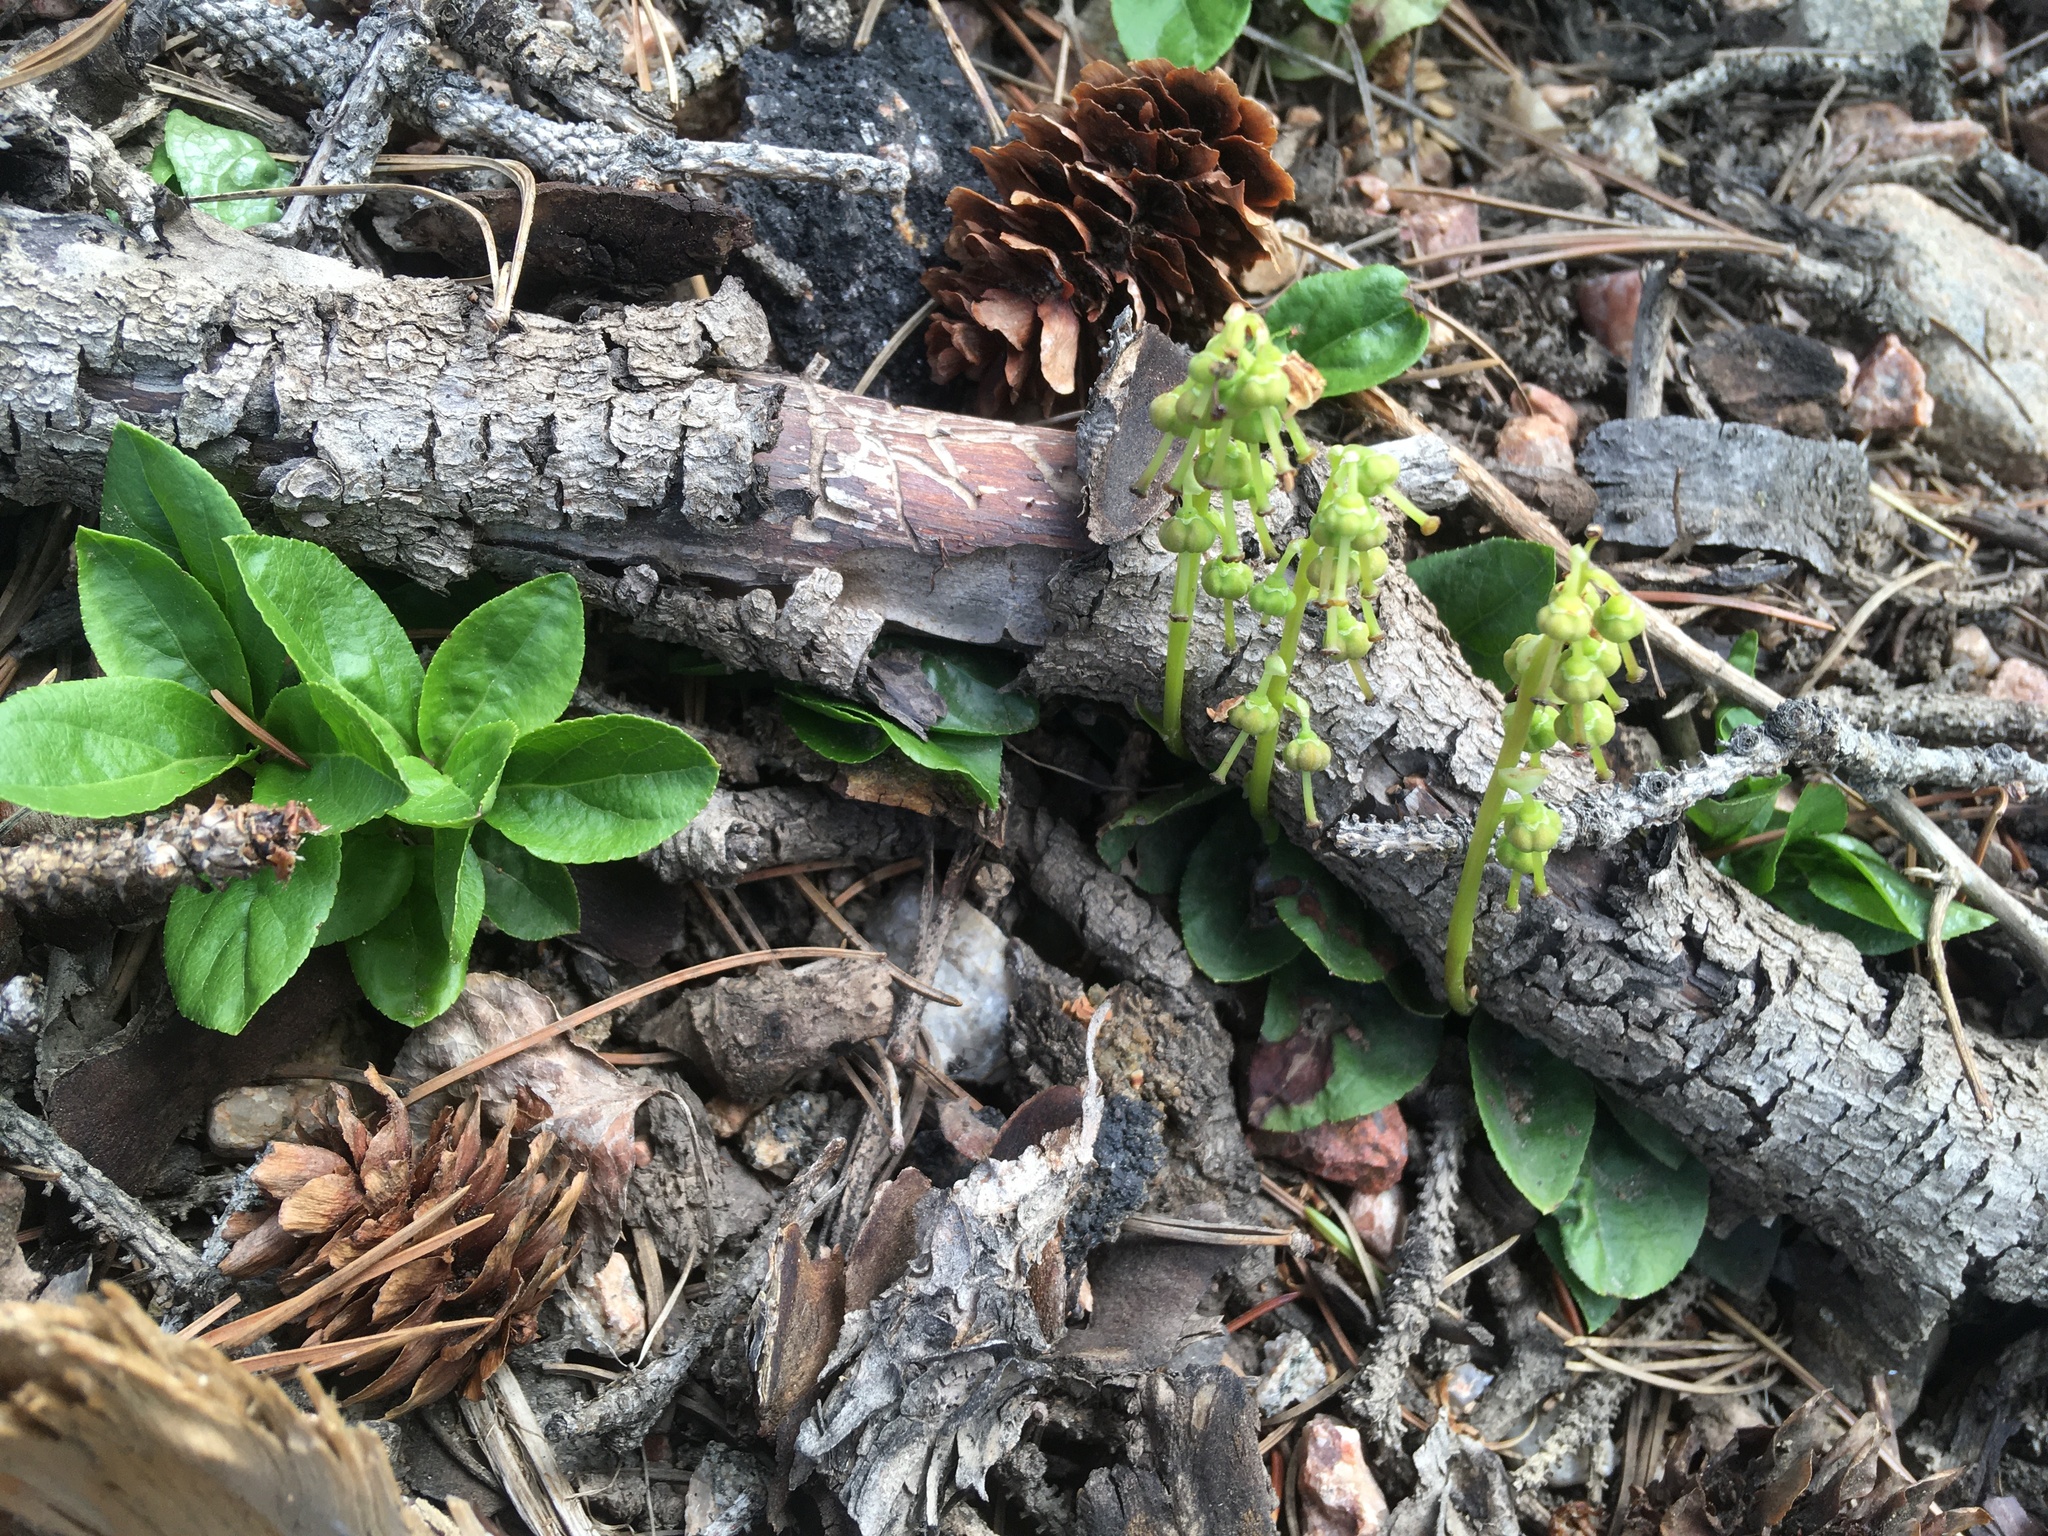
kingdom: Plantae
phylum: Tracheophyta
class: Magnoliopsida
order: Ericales
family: Ericaceae
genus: Orthilia
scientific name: Orthilia secunda
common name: One-sided orthilia
